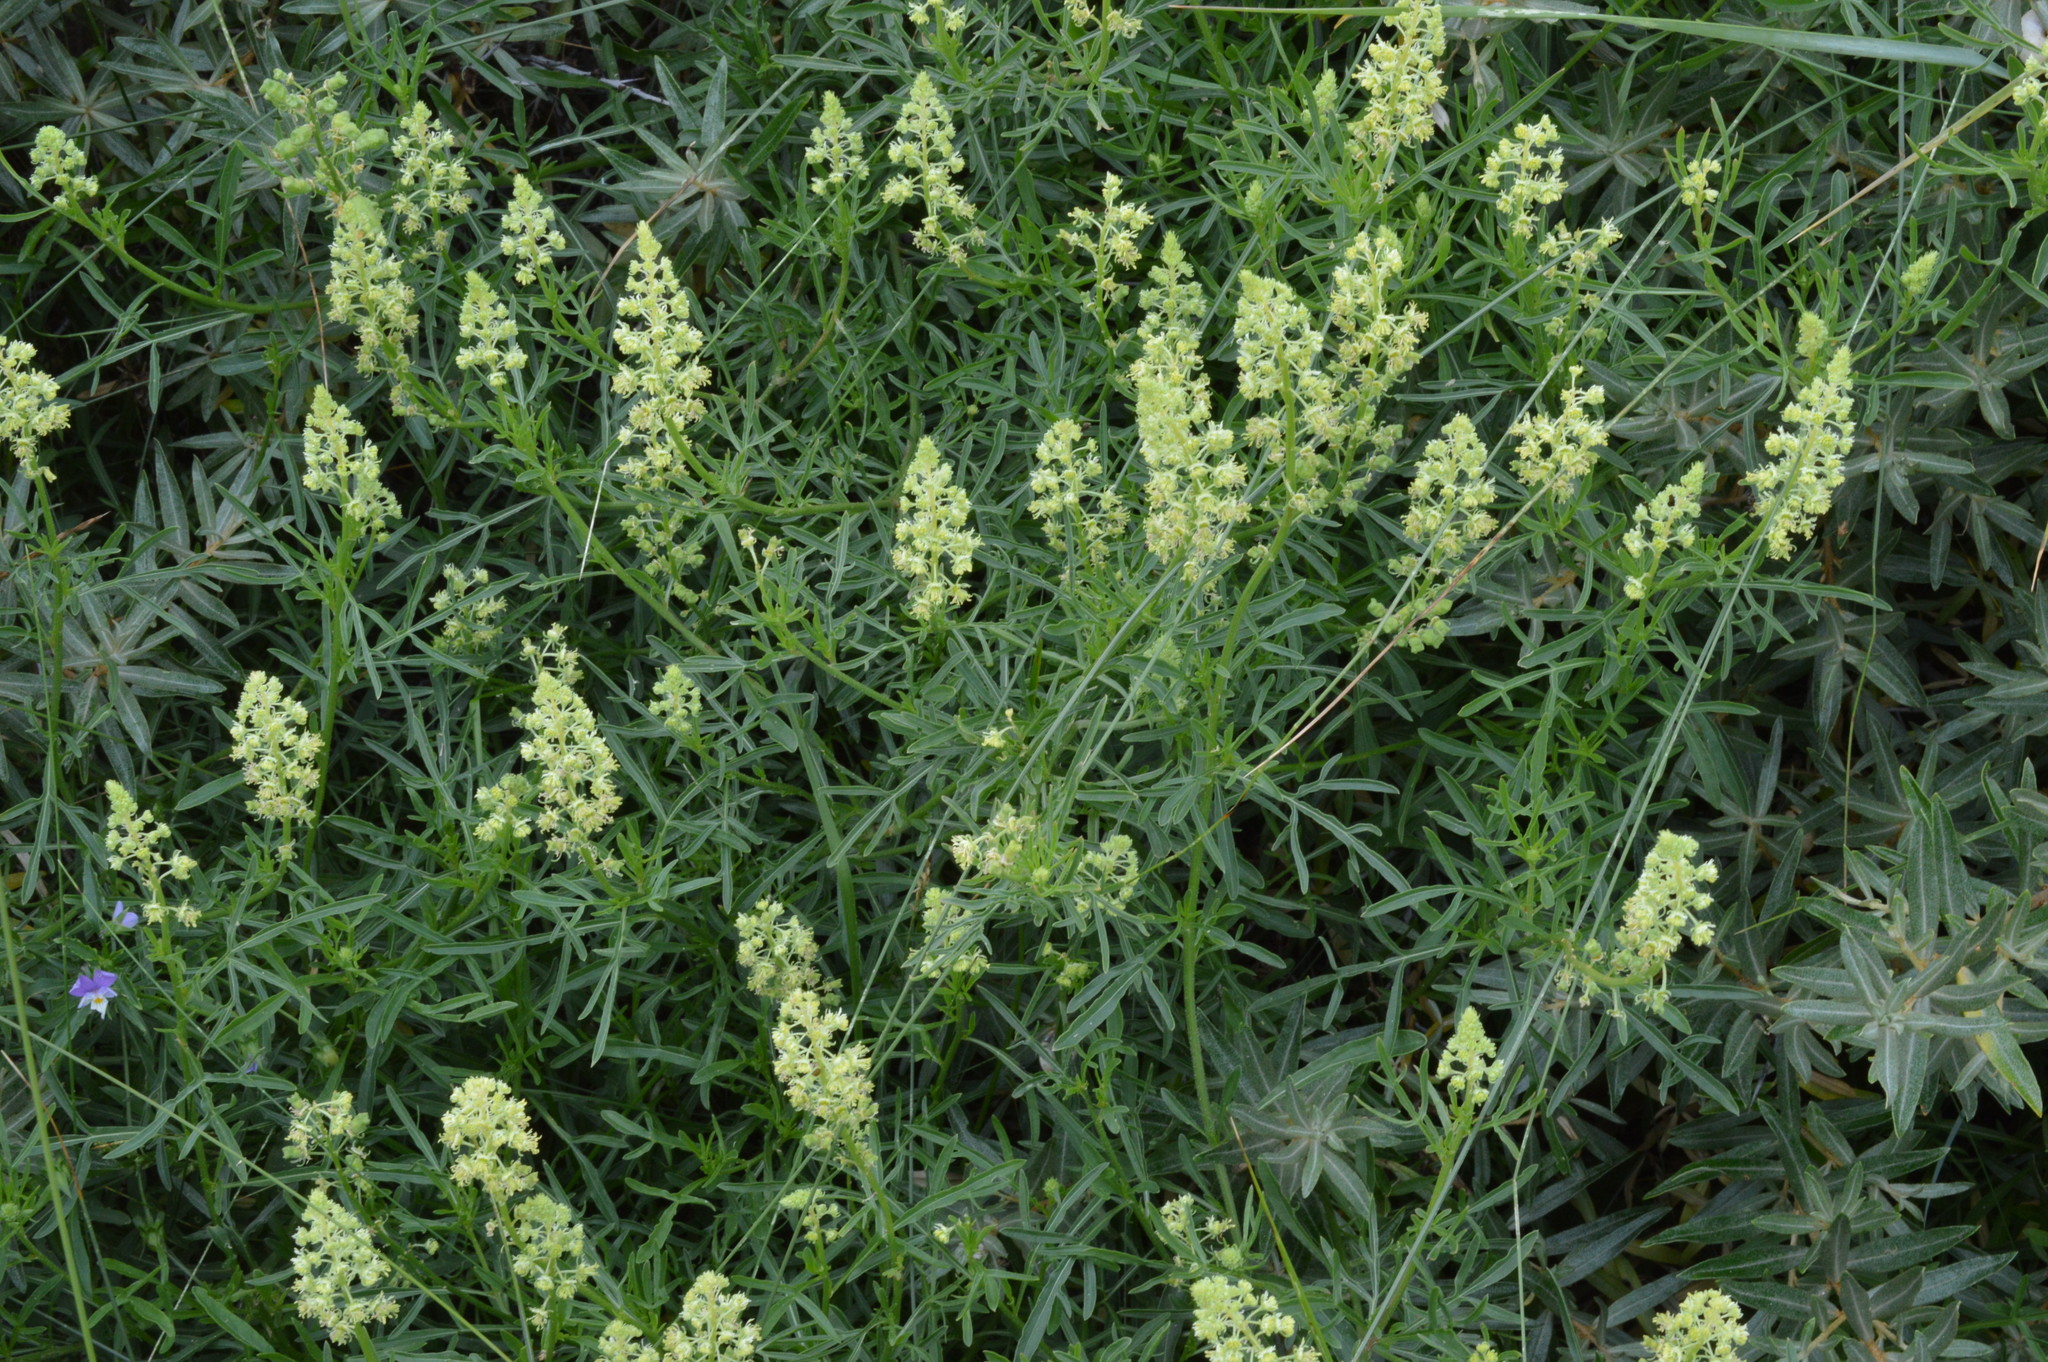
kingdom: Plantae
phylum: Tracheophyta
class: Magnoliopsida
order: Brassicales
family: Resedaceae
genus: Reseda
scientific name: Reseda lutea
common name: Wild mignonette
